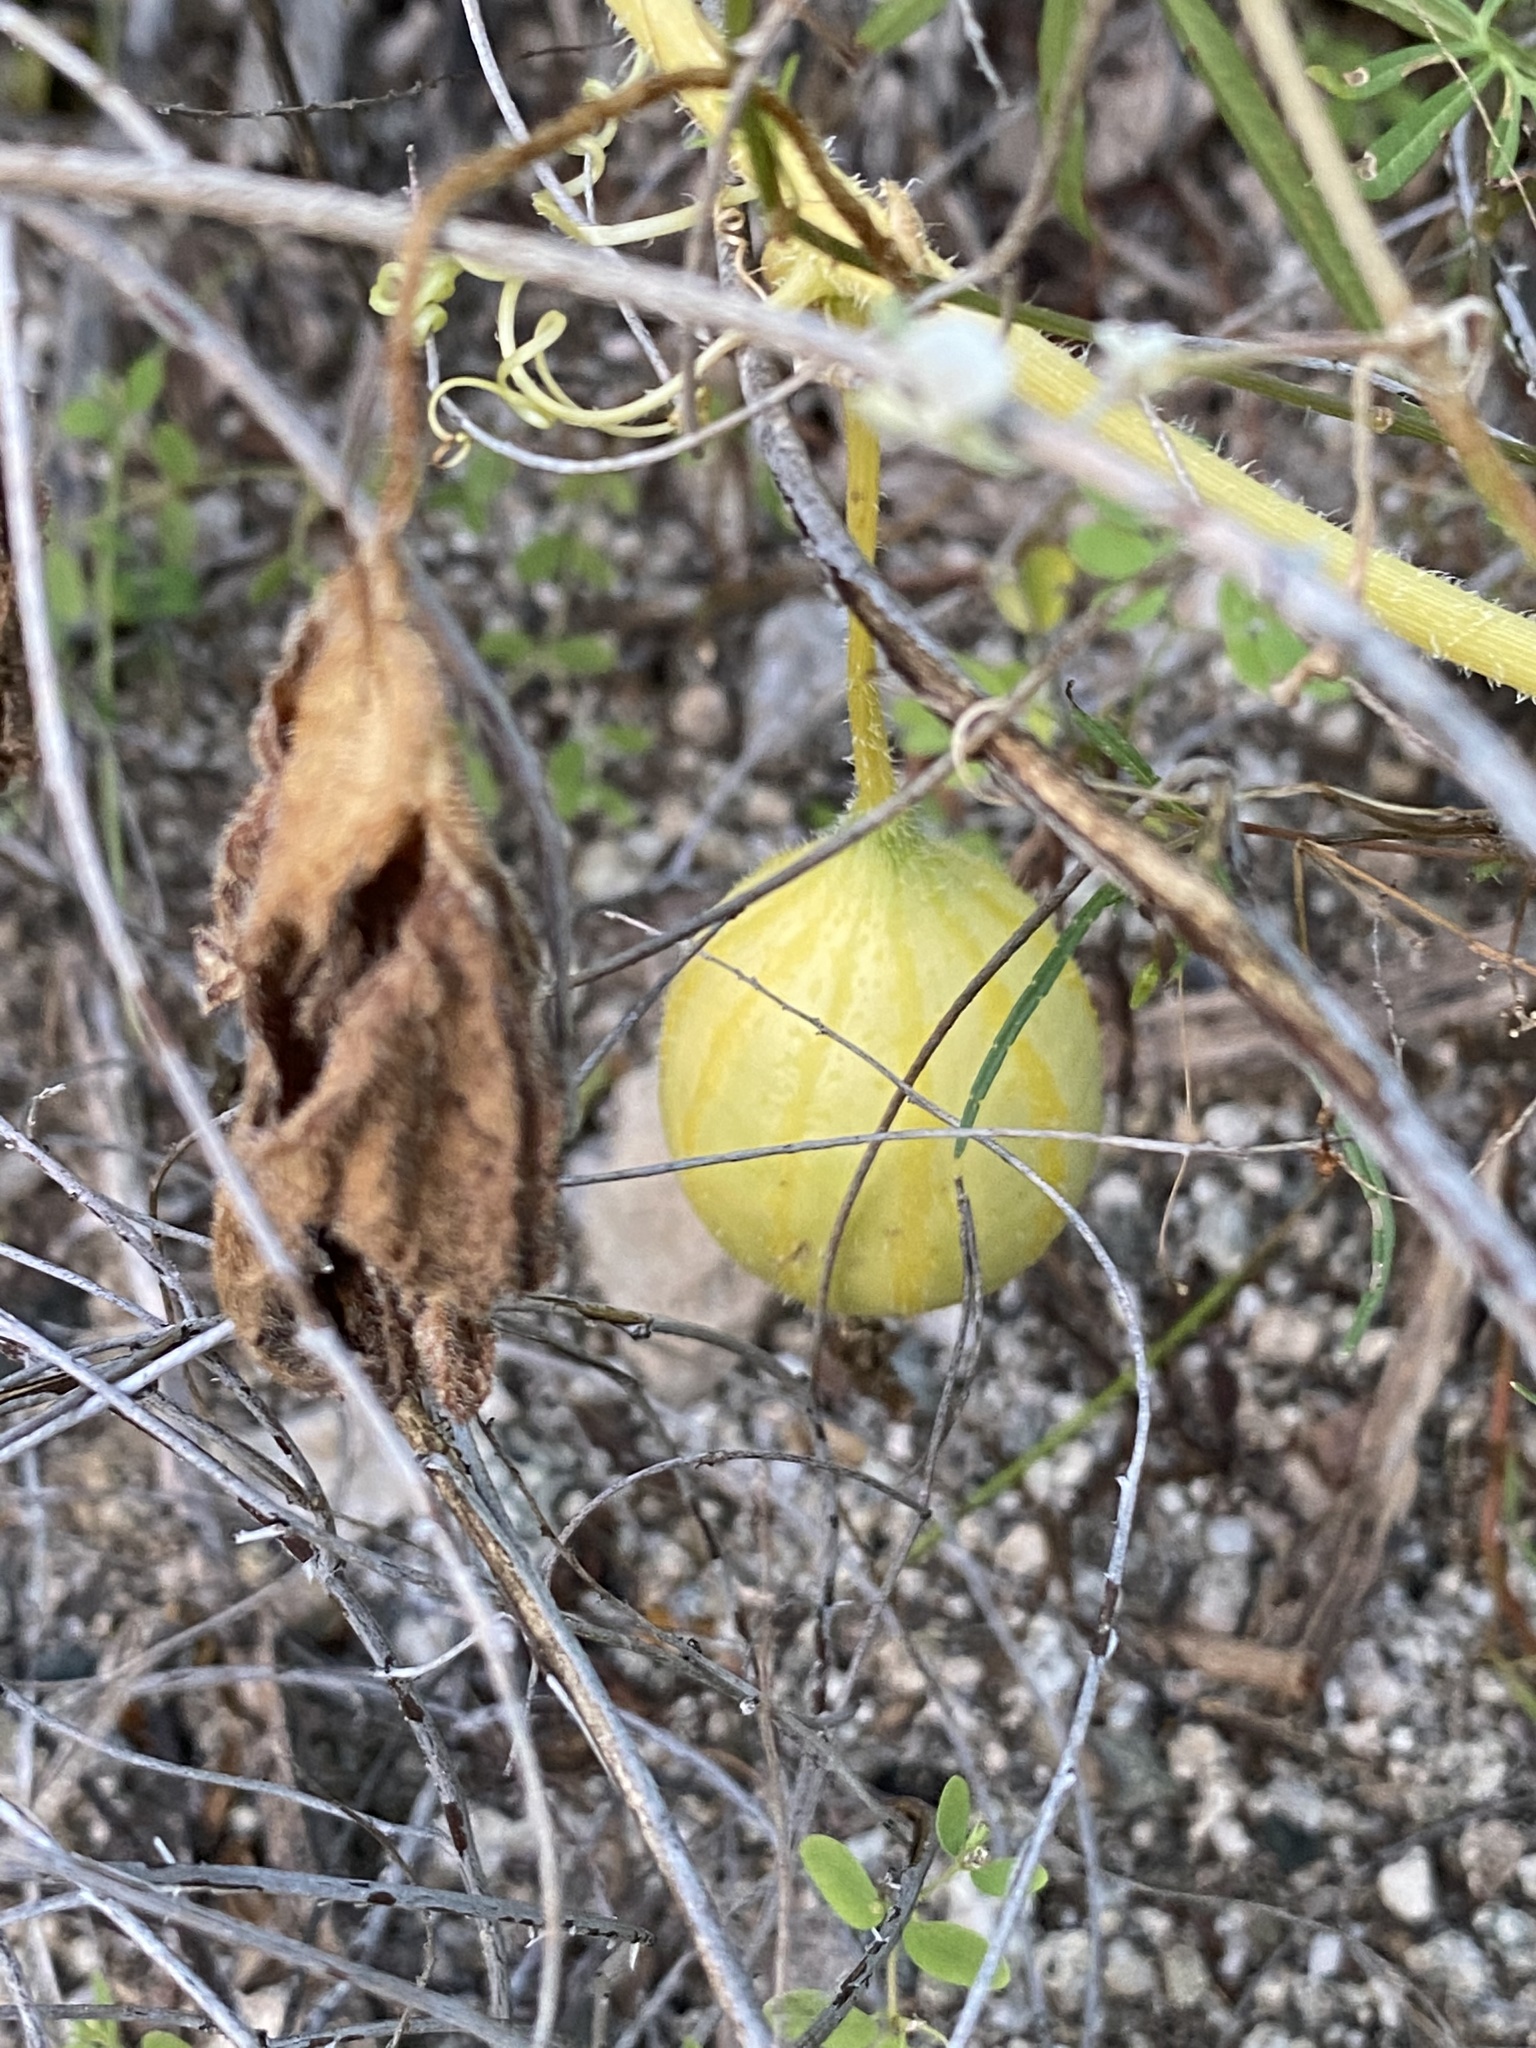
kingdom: Plantae
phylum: Tracheophyta
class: Magnoliopsida
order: Cucurbitales
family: Cucurbitaceae
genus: Cucurbita
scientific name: Cucurbita foetidissima
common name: Buffalo gourd
